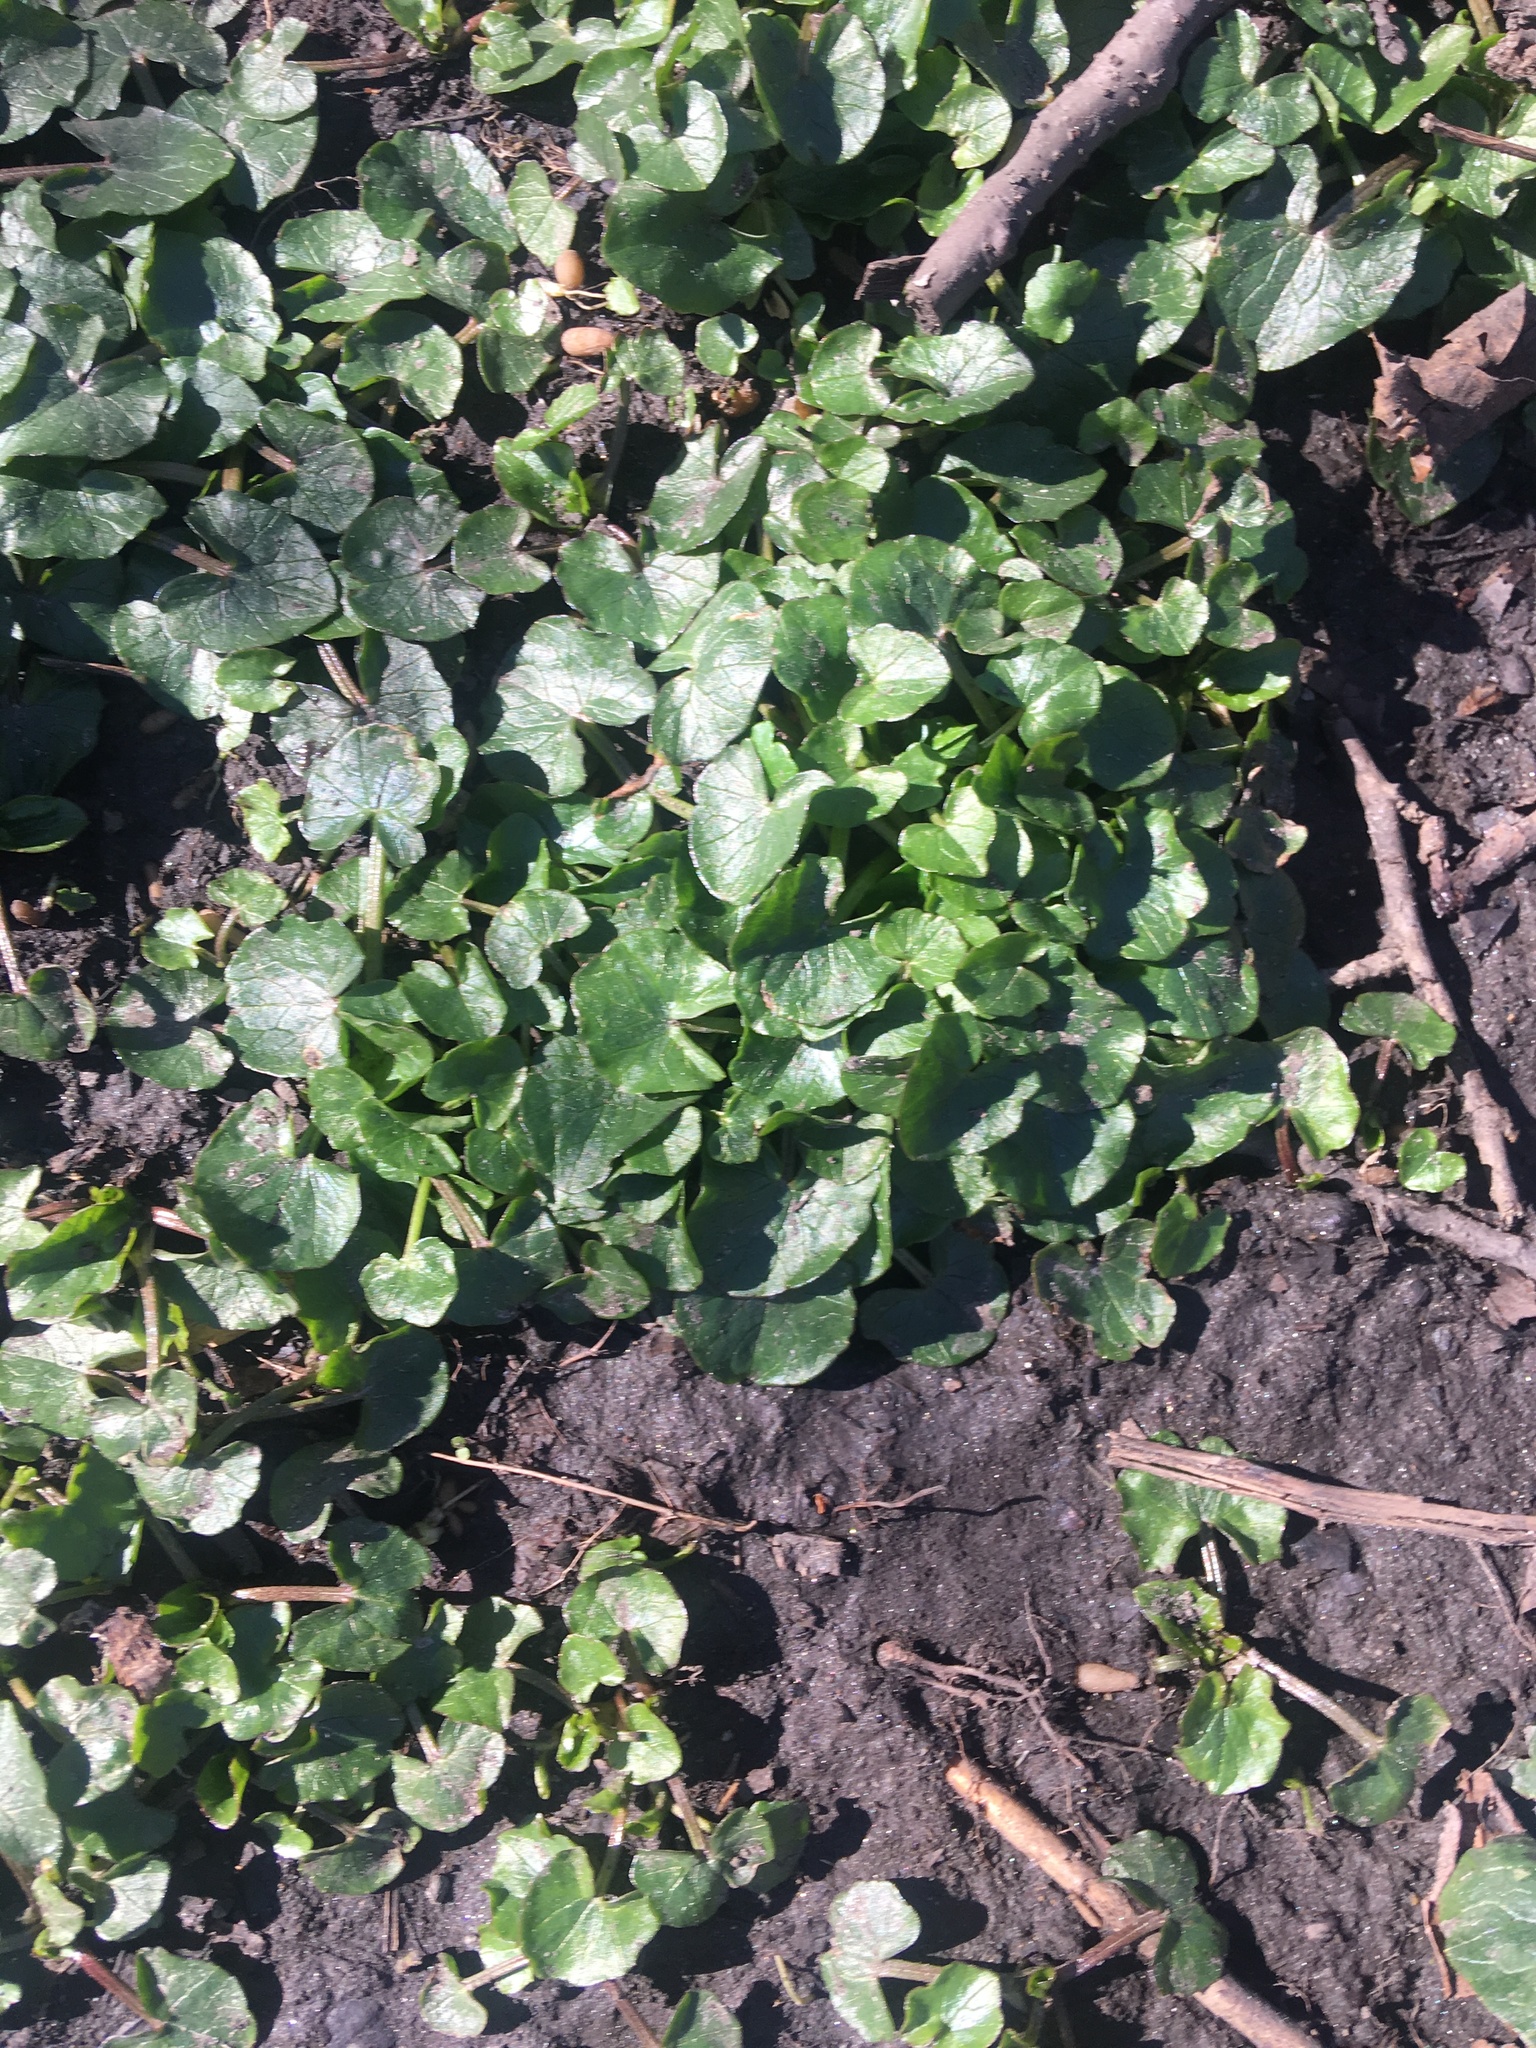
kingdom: Plantae
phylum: Tracheophyta
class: Magnoliopsida
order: Ranunculales
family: Ranunculaceae
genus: Ficaria
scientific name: Ficaria verna
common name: Lesser celandine
